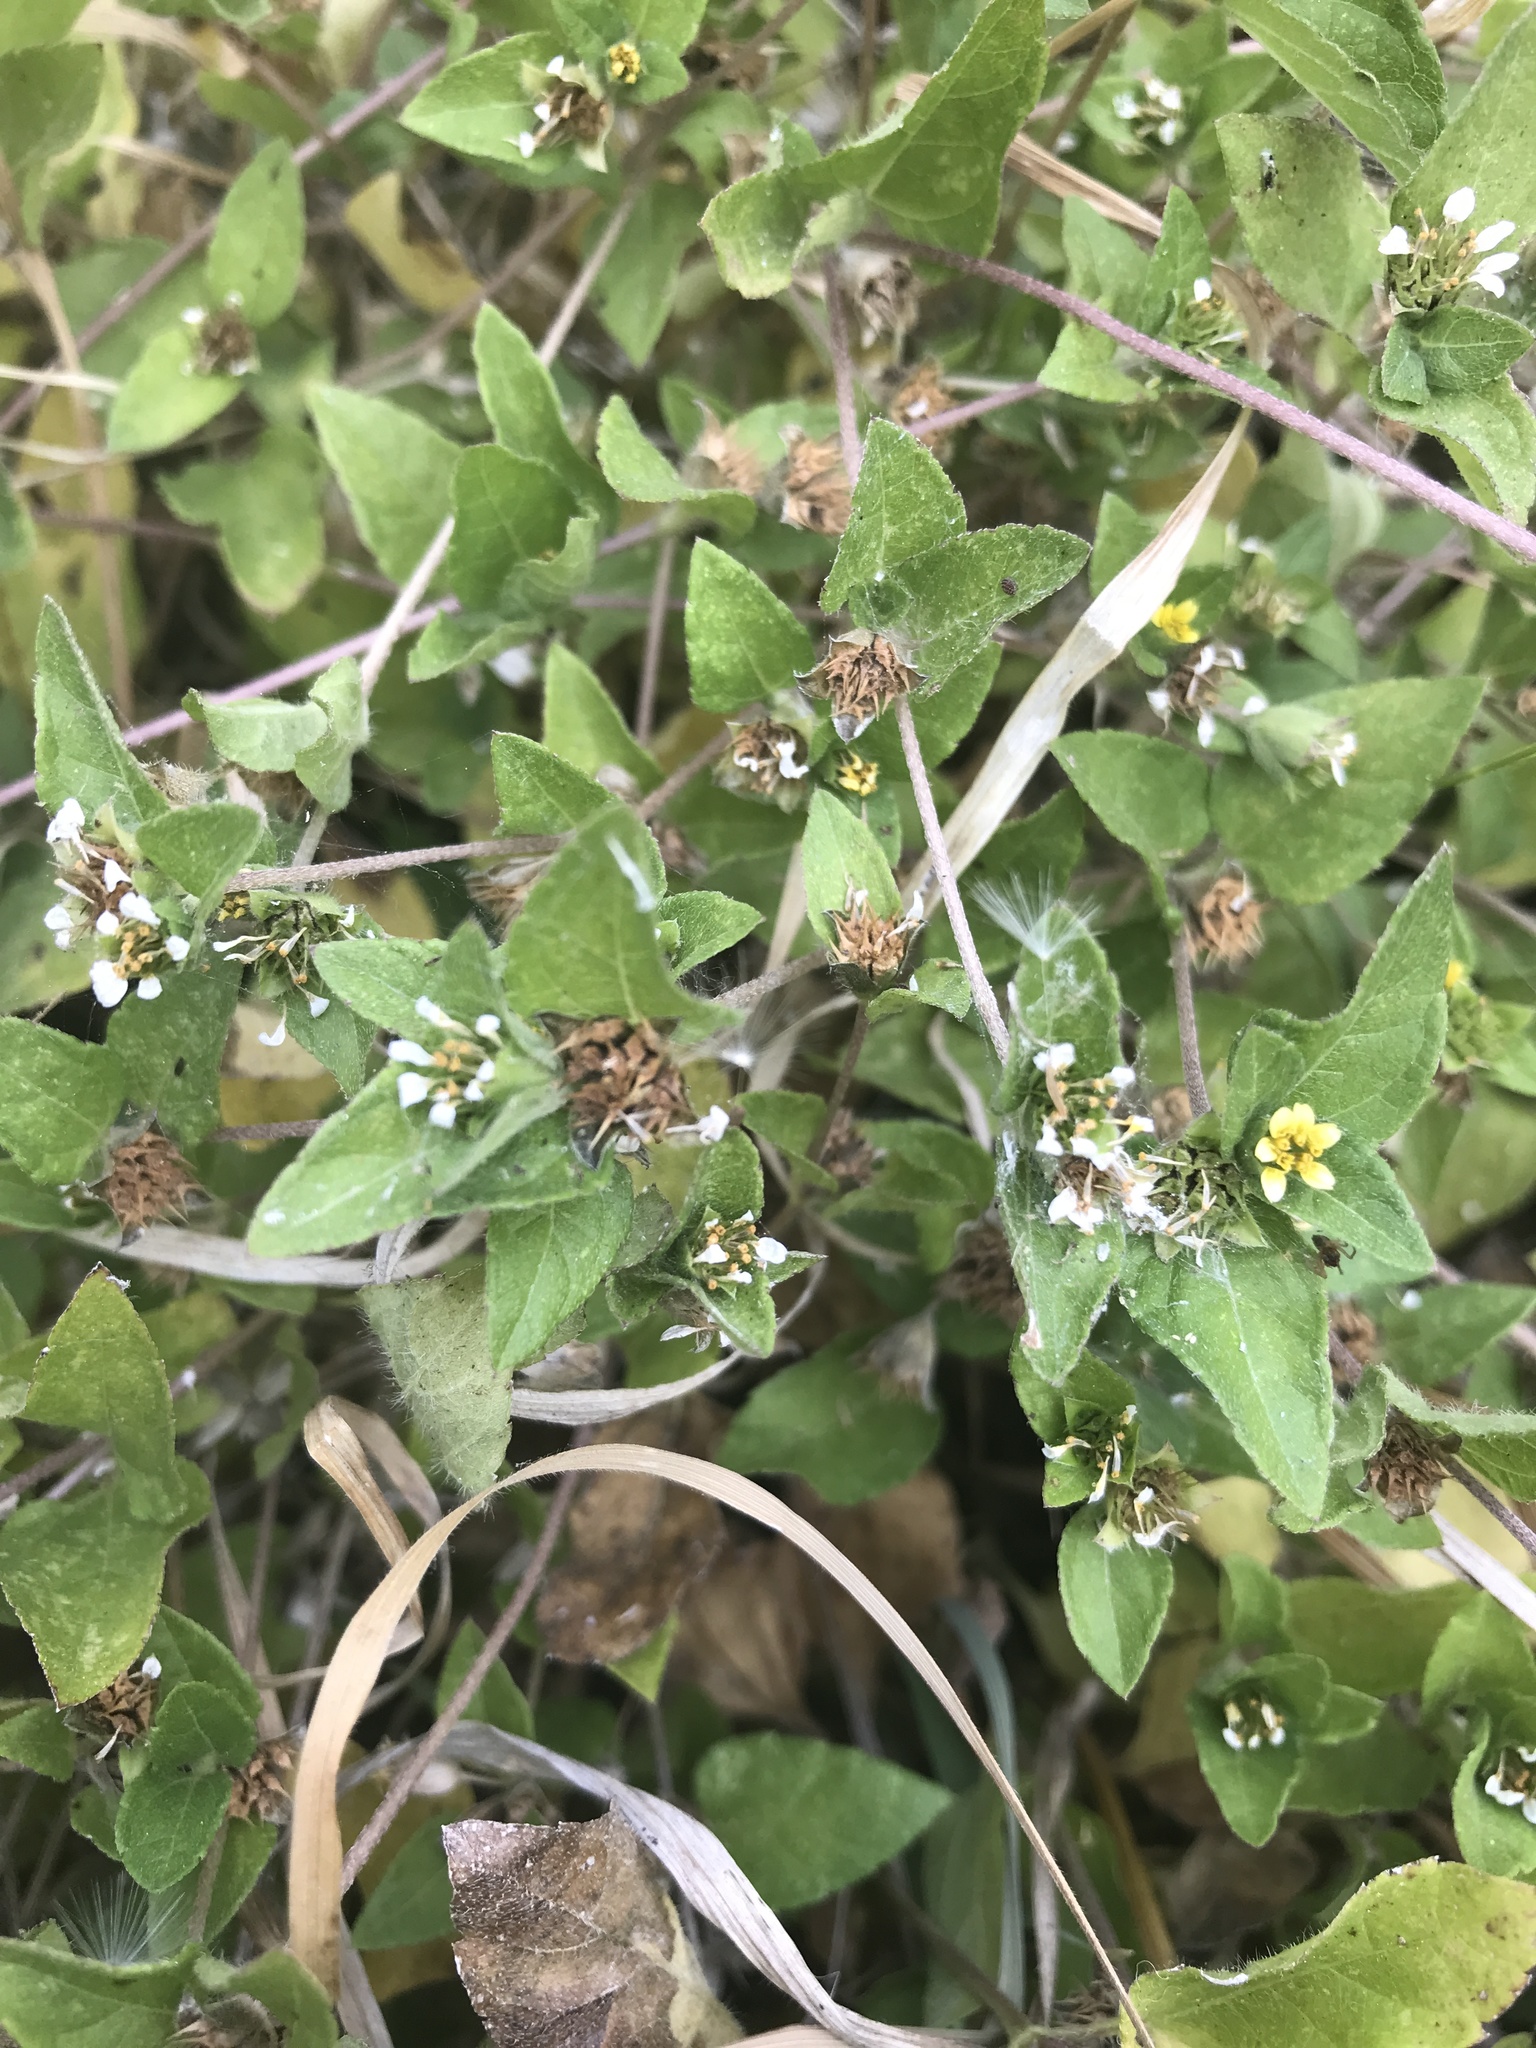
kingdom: Plantae
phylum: Tracheophyta
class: Magnoliopsida
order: Asterales
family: Asteraceae
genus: Calyptocarpus
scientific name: Calyptocarpus vialis
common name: Straggler daisy
